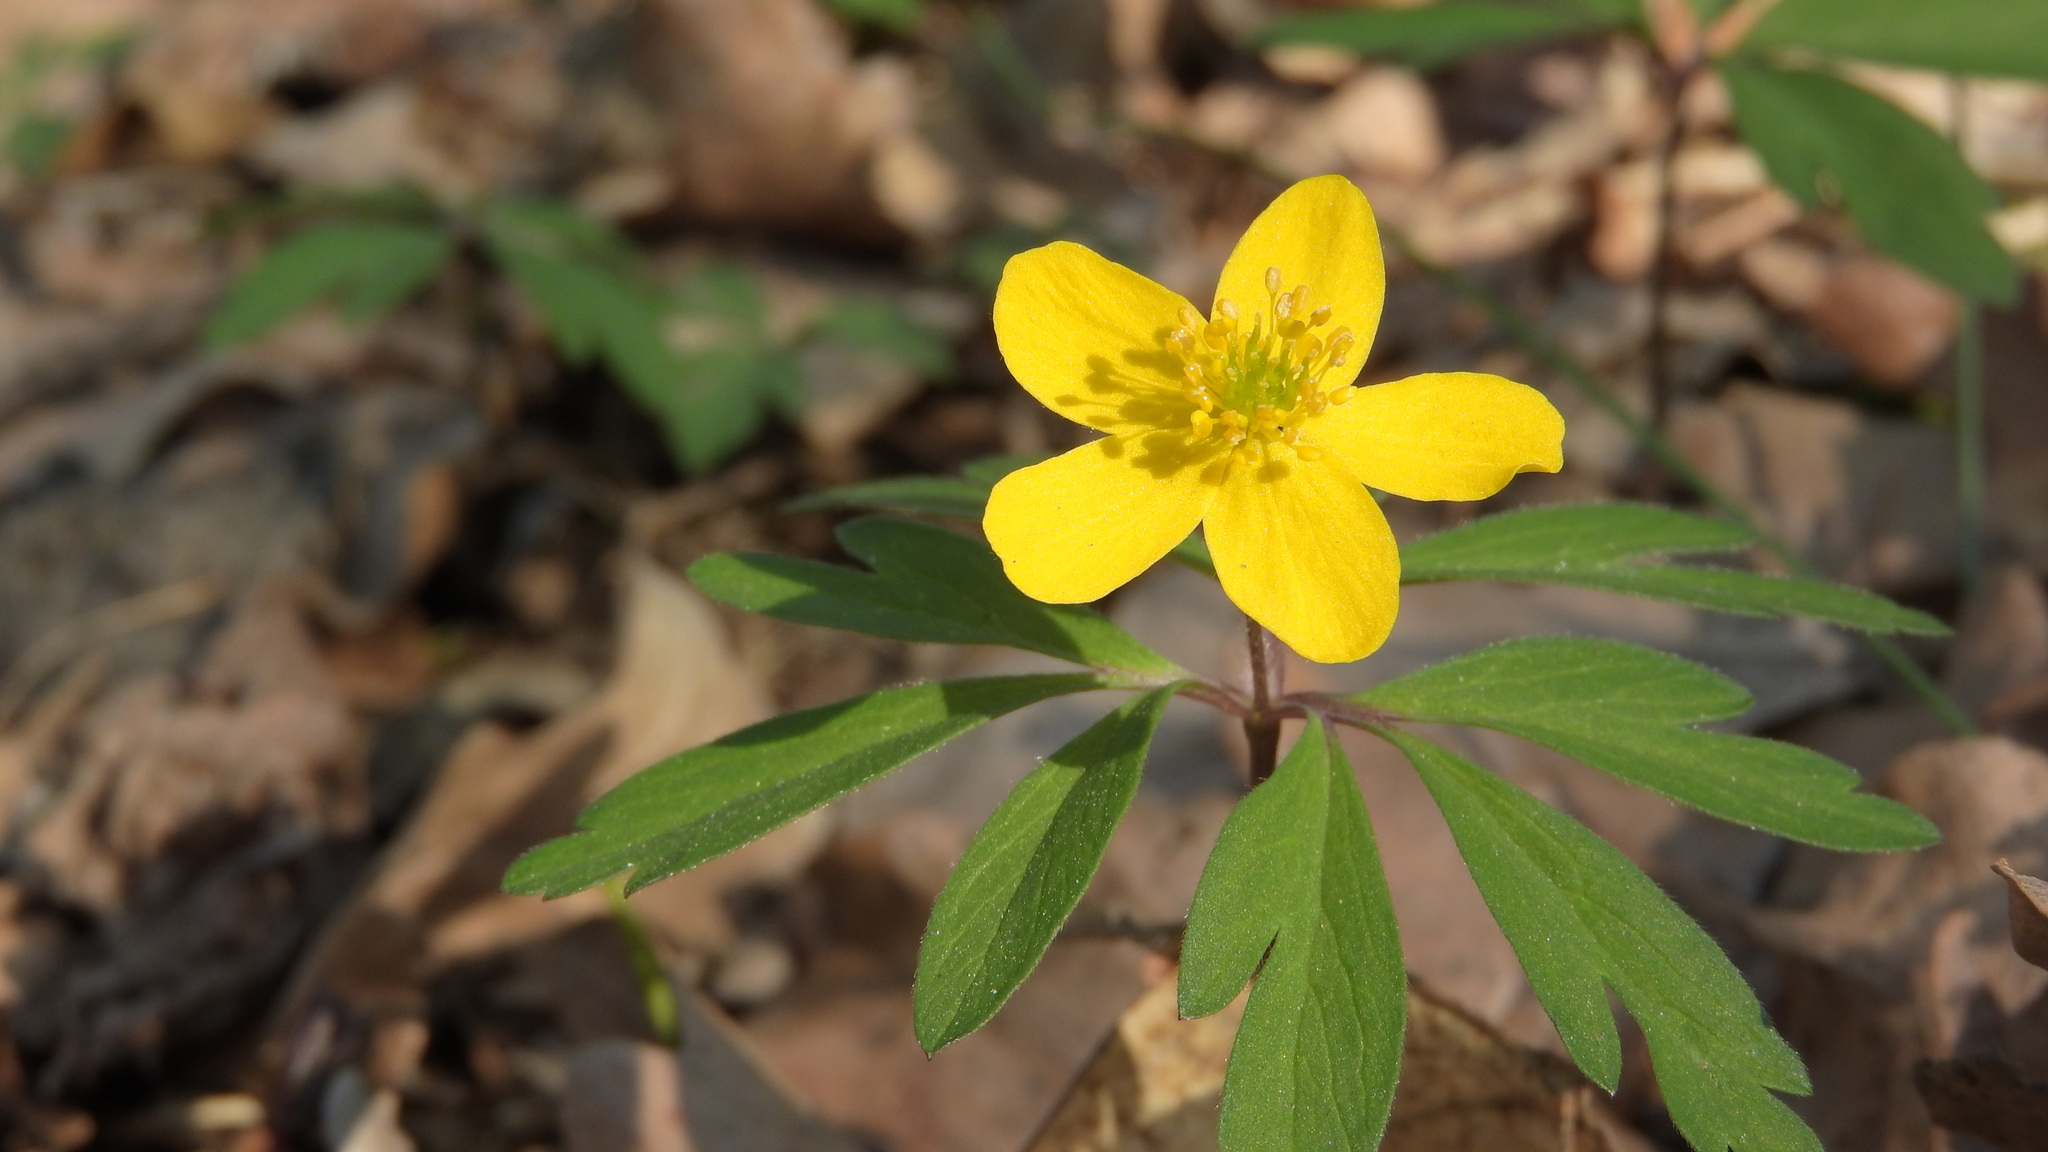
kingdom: Plantae
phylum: Tracheophyta
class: Magnoliopsida
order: Ranunculales
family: Ranunculaceae
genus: Anemone
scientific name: Anemone ranunculoides
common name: Yellow anemone
